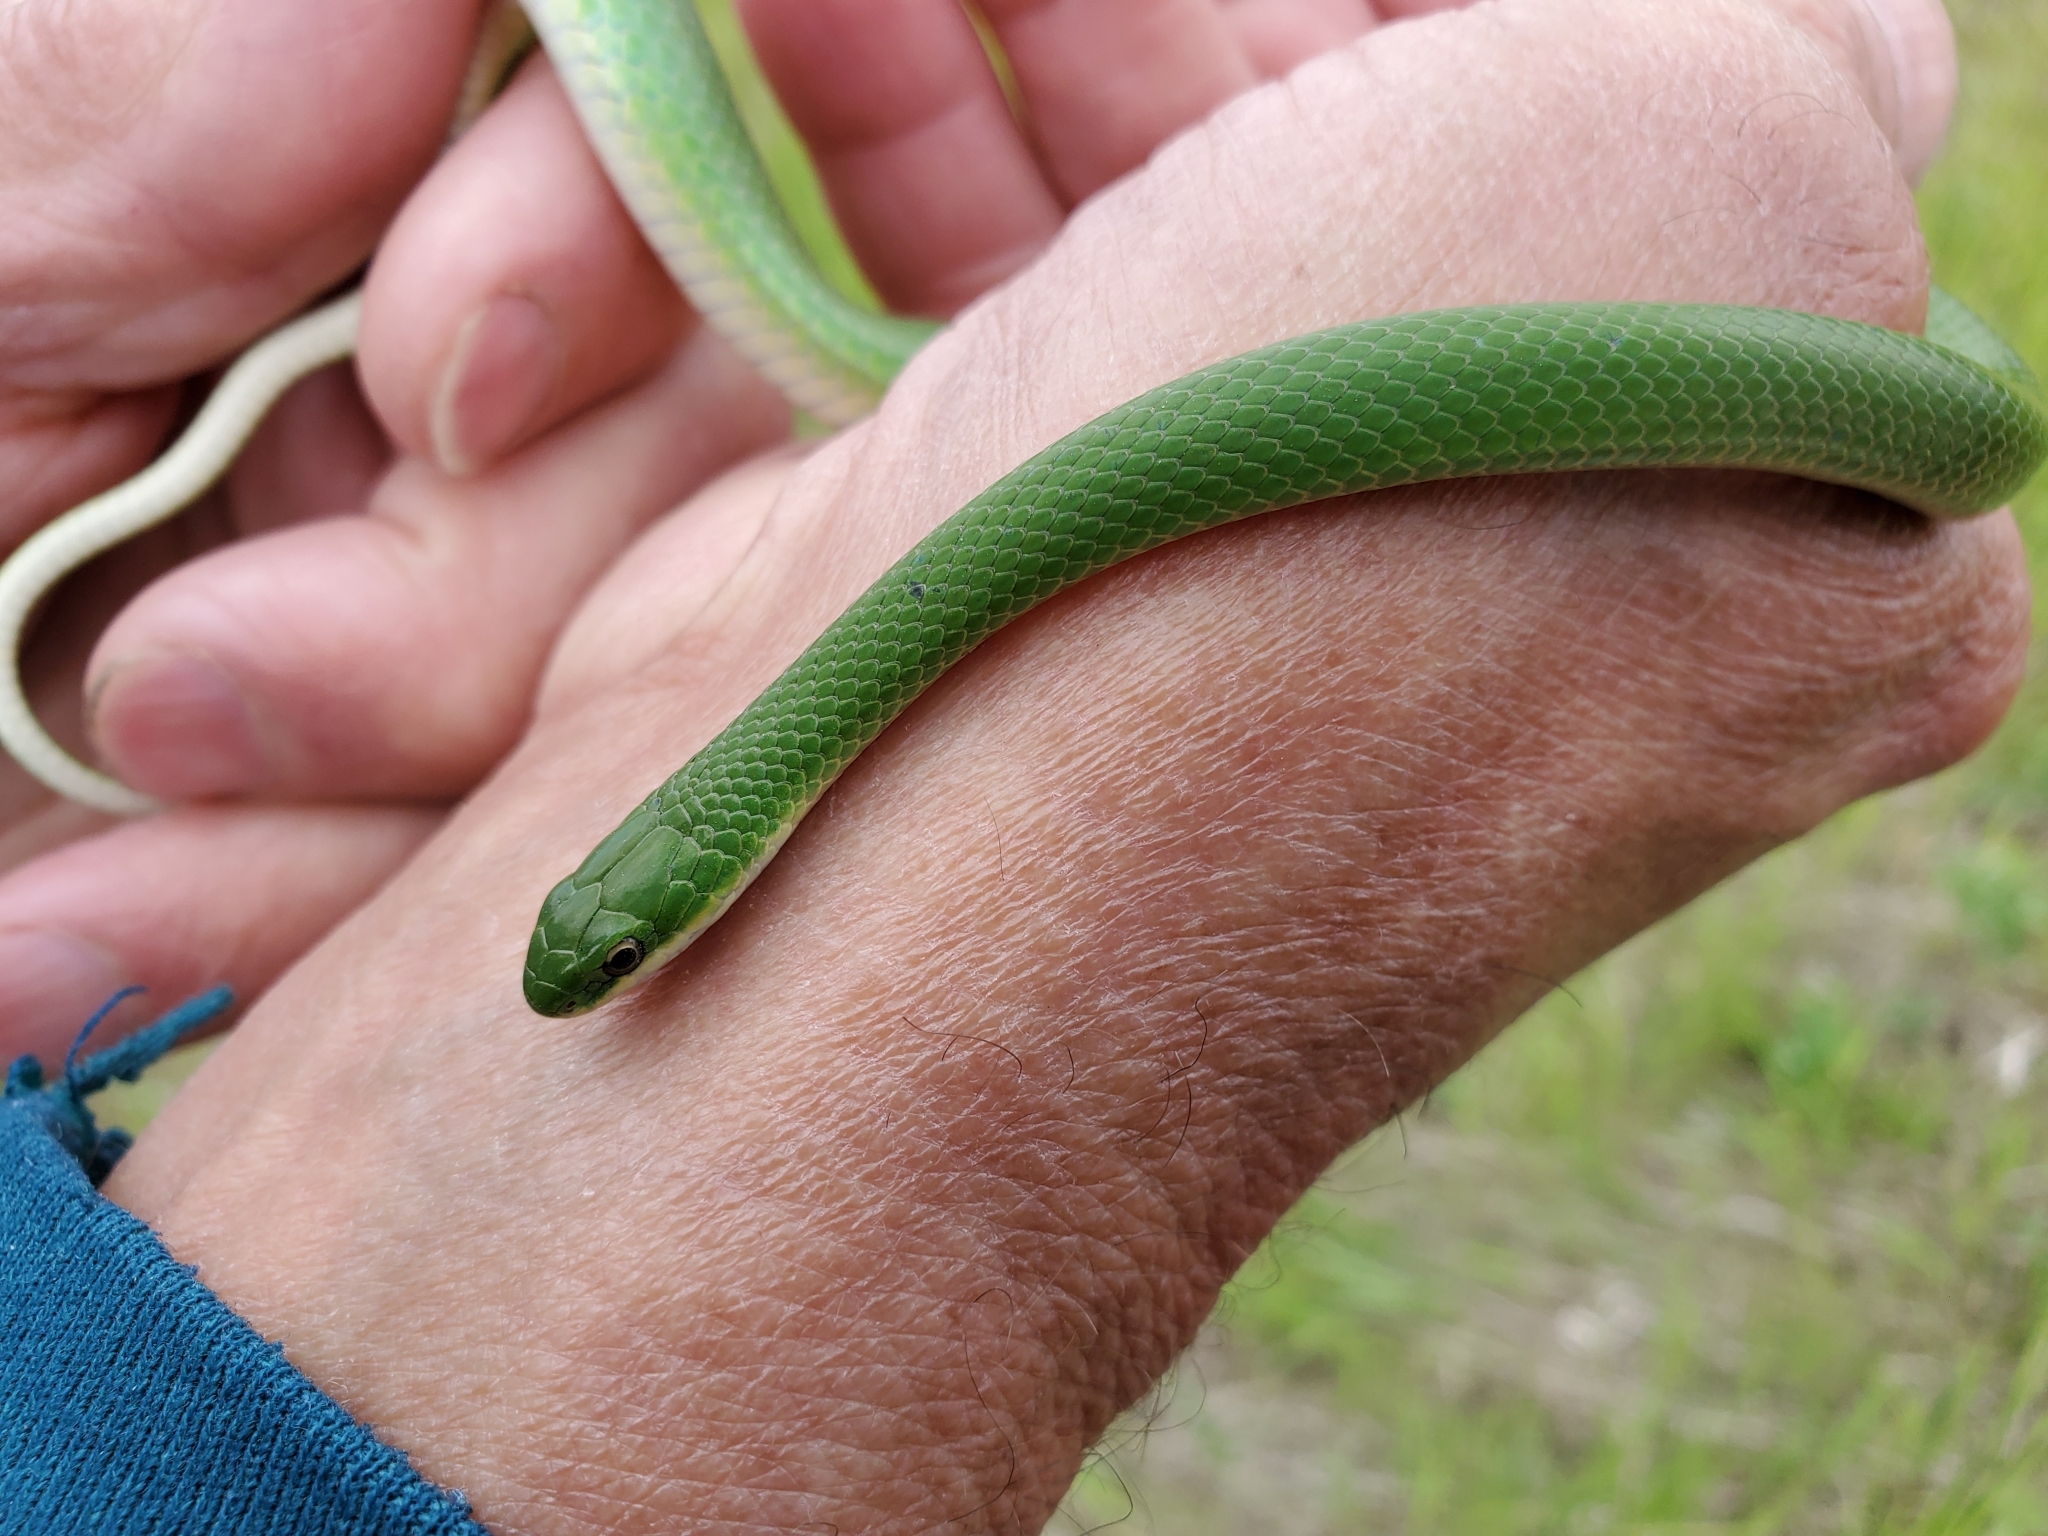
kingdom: Animalia
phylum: Chordata
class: Squamata
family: Colubridae
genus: Opheodrys
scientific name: Opheodrys vernalis
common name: Smooth green snake
